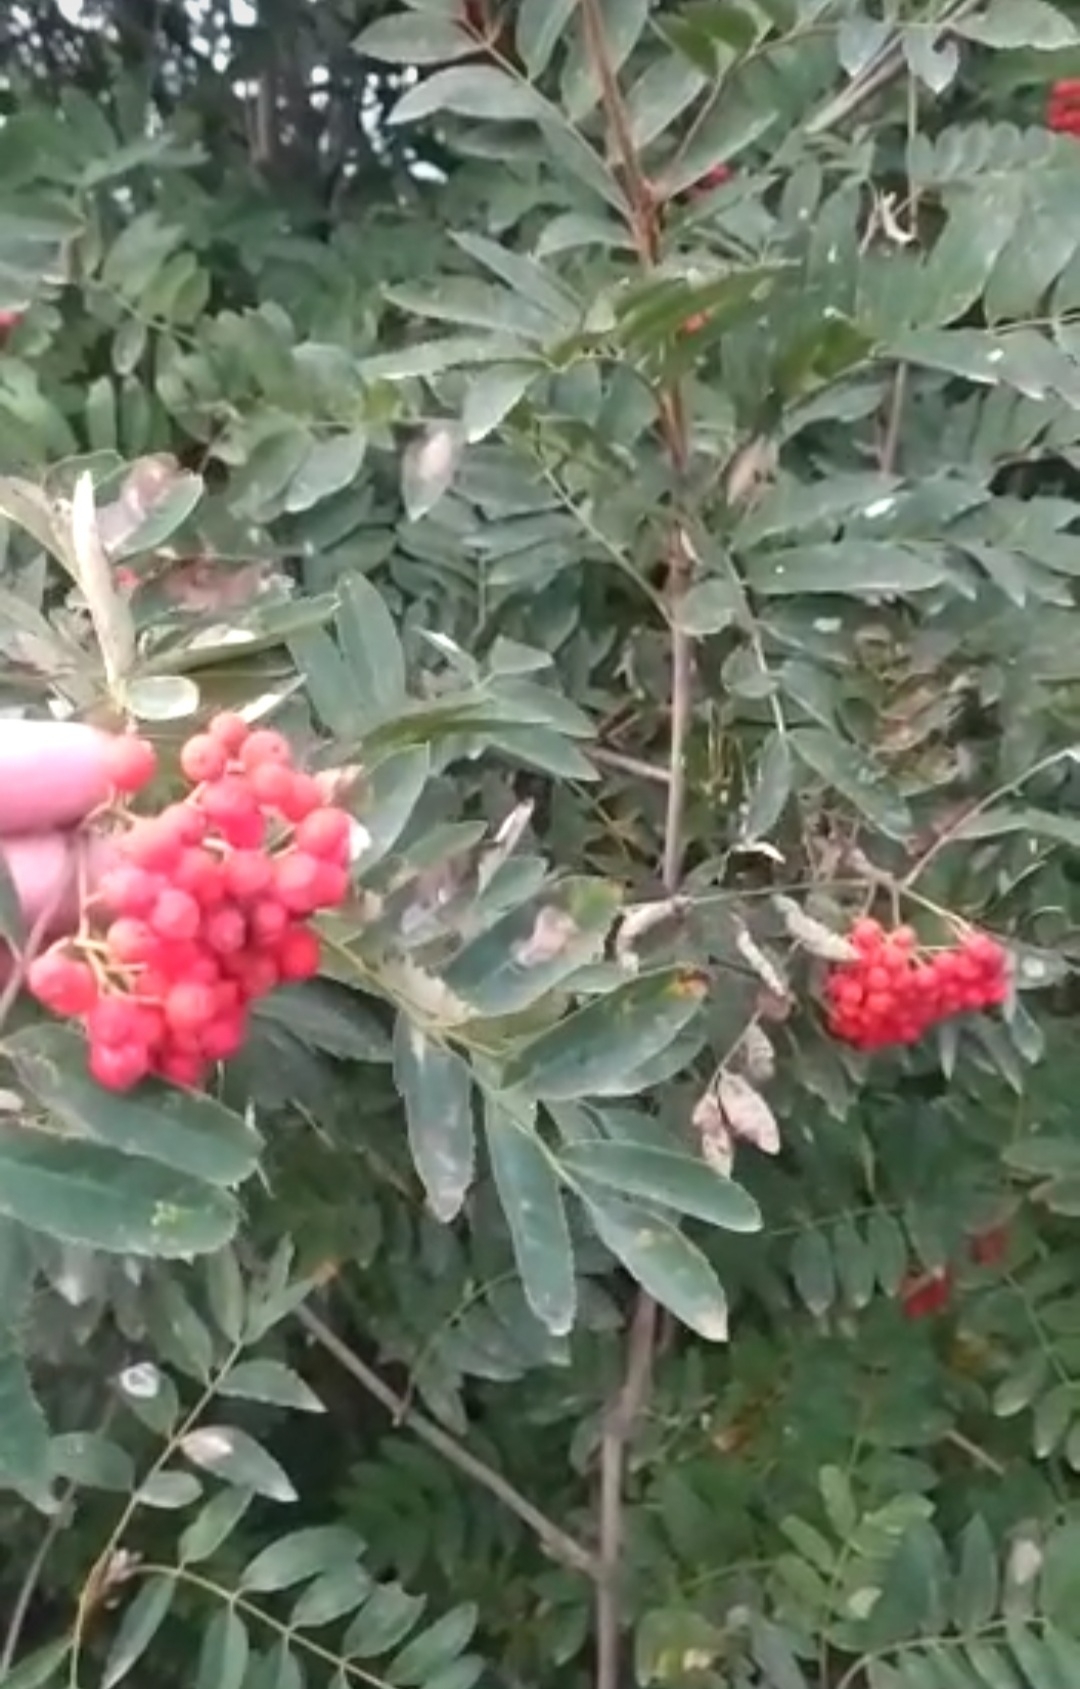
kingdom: Plantae
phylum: Tracheophyta
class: Magnoliopsida
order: Rosales
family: Rosaceae
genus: Sorbus
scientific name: Sorbus aucuparia
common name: Rowan
